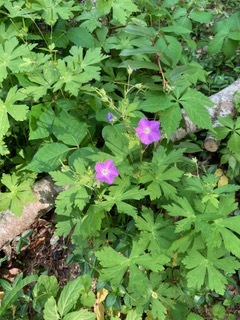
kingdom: Plantae
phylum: Tracheophyta
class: Magnoliopsida
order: Geraniales
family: Geraniaceae
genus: Geranium
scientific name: Geranium maculatum
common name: Spotted geranium
